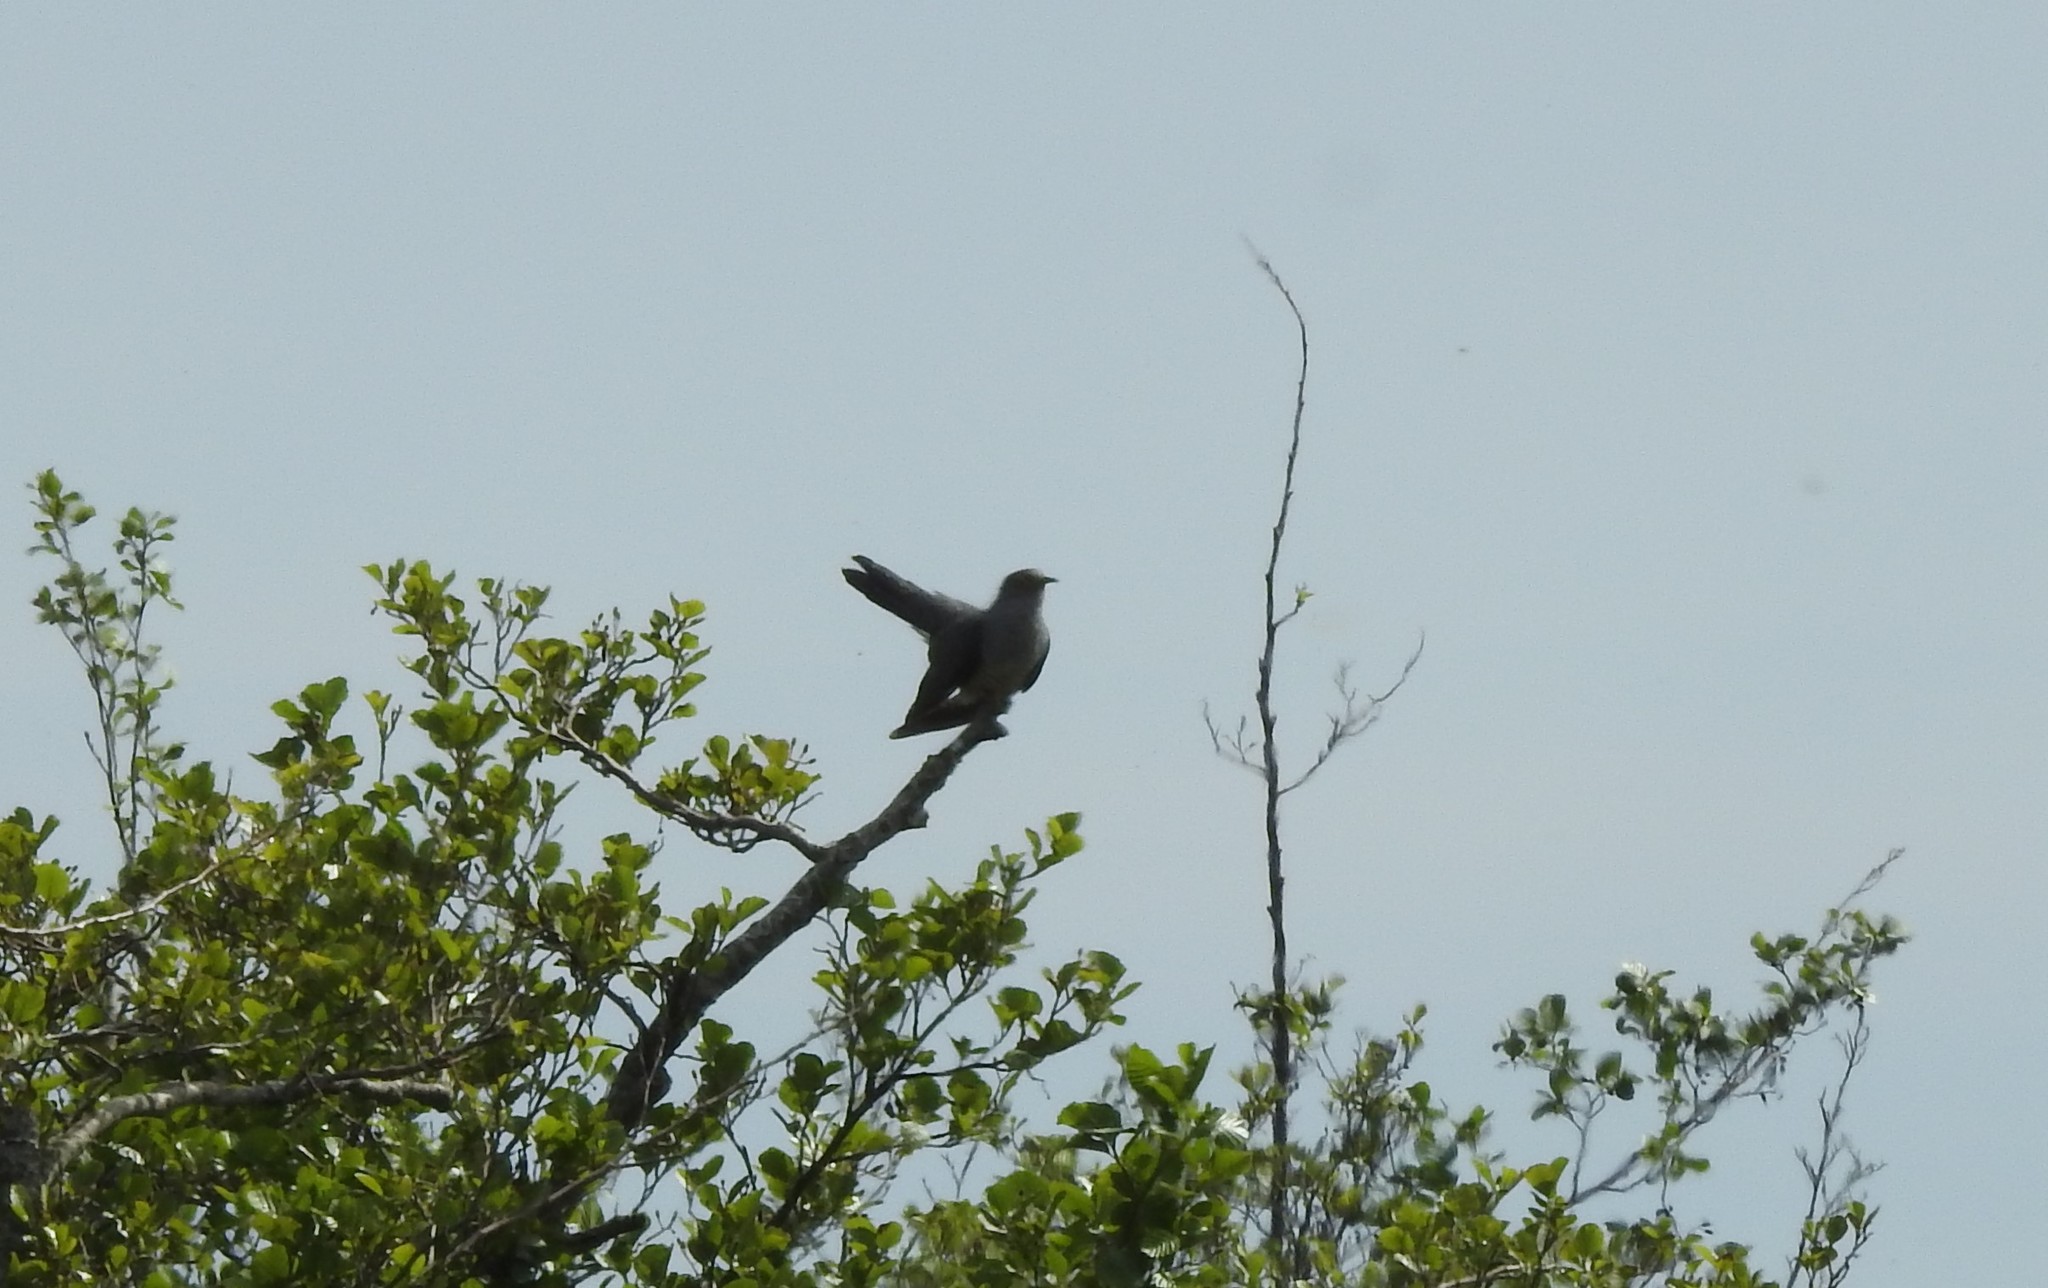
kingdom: Animalia
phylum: Chordata
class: Aves
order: Cuculiformes
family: Cuculidae
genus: Cuculus
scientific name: Cuculus canorus
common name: Common cuckoo
